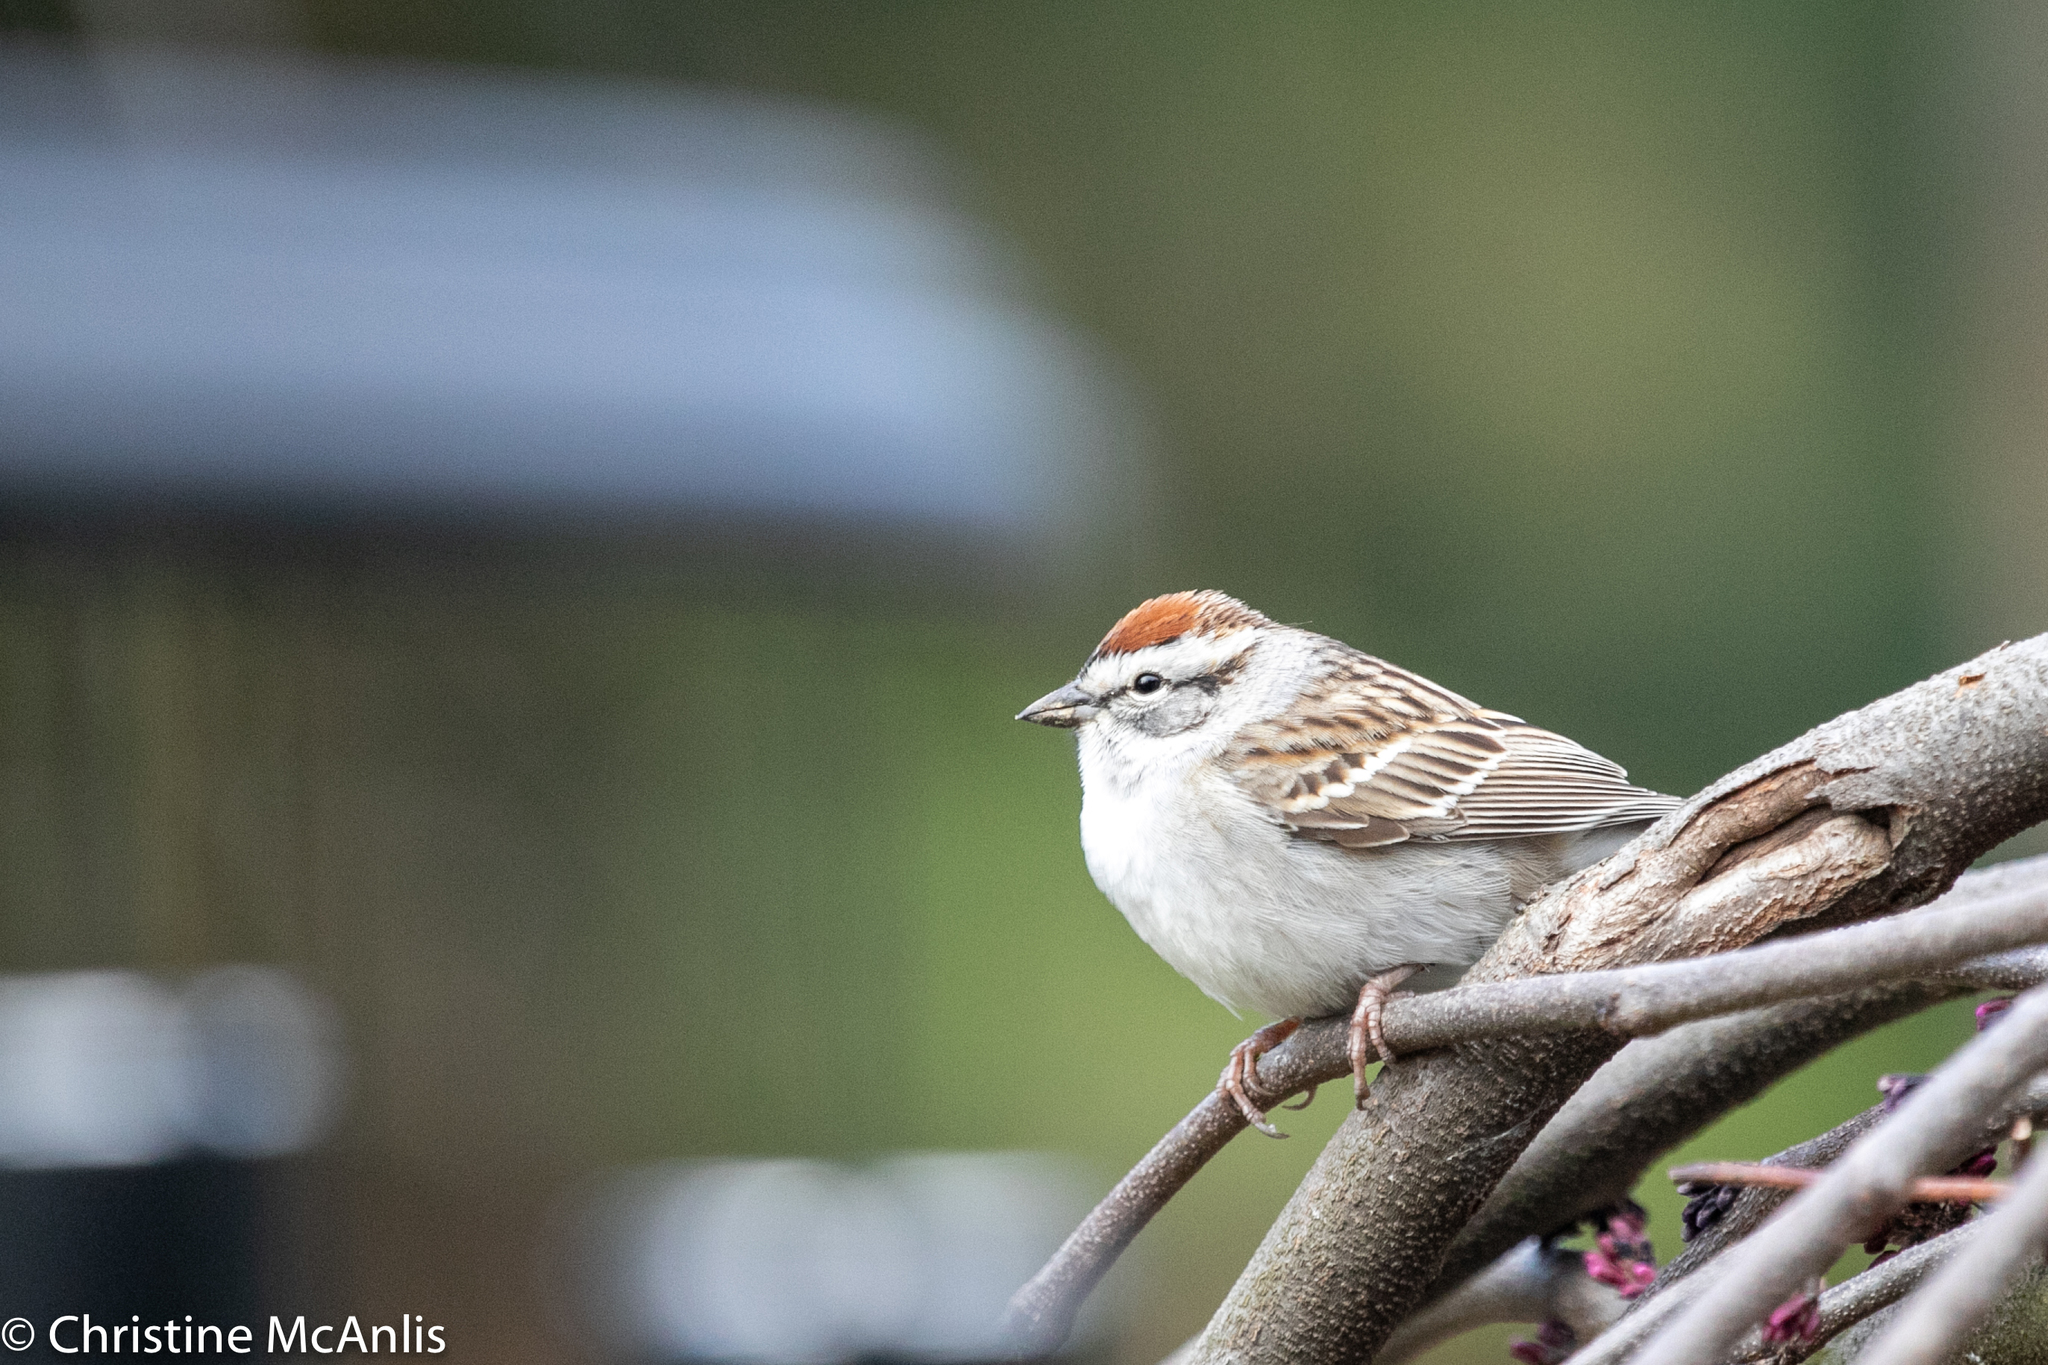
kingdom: Animalia
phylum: Chordata
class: Aves
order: Passeriformes
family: Passerellidae
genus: Spizella
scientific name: Spizella passerina
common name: Chipping sparrow
